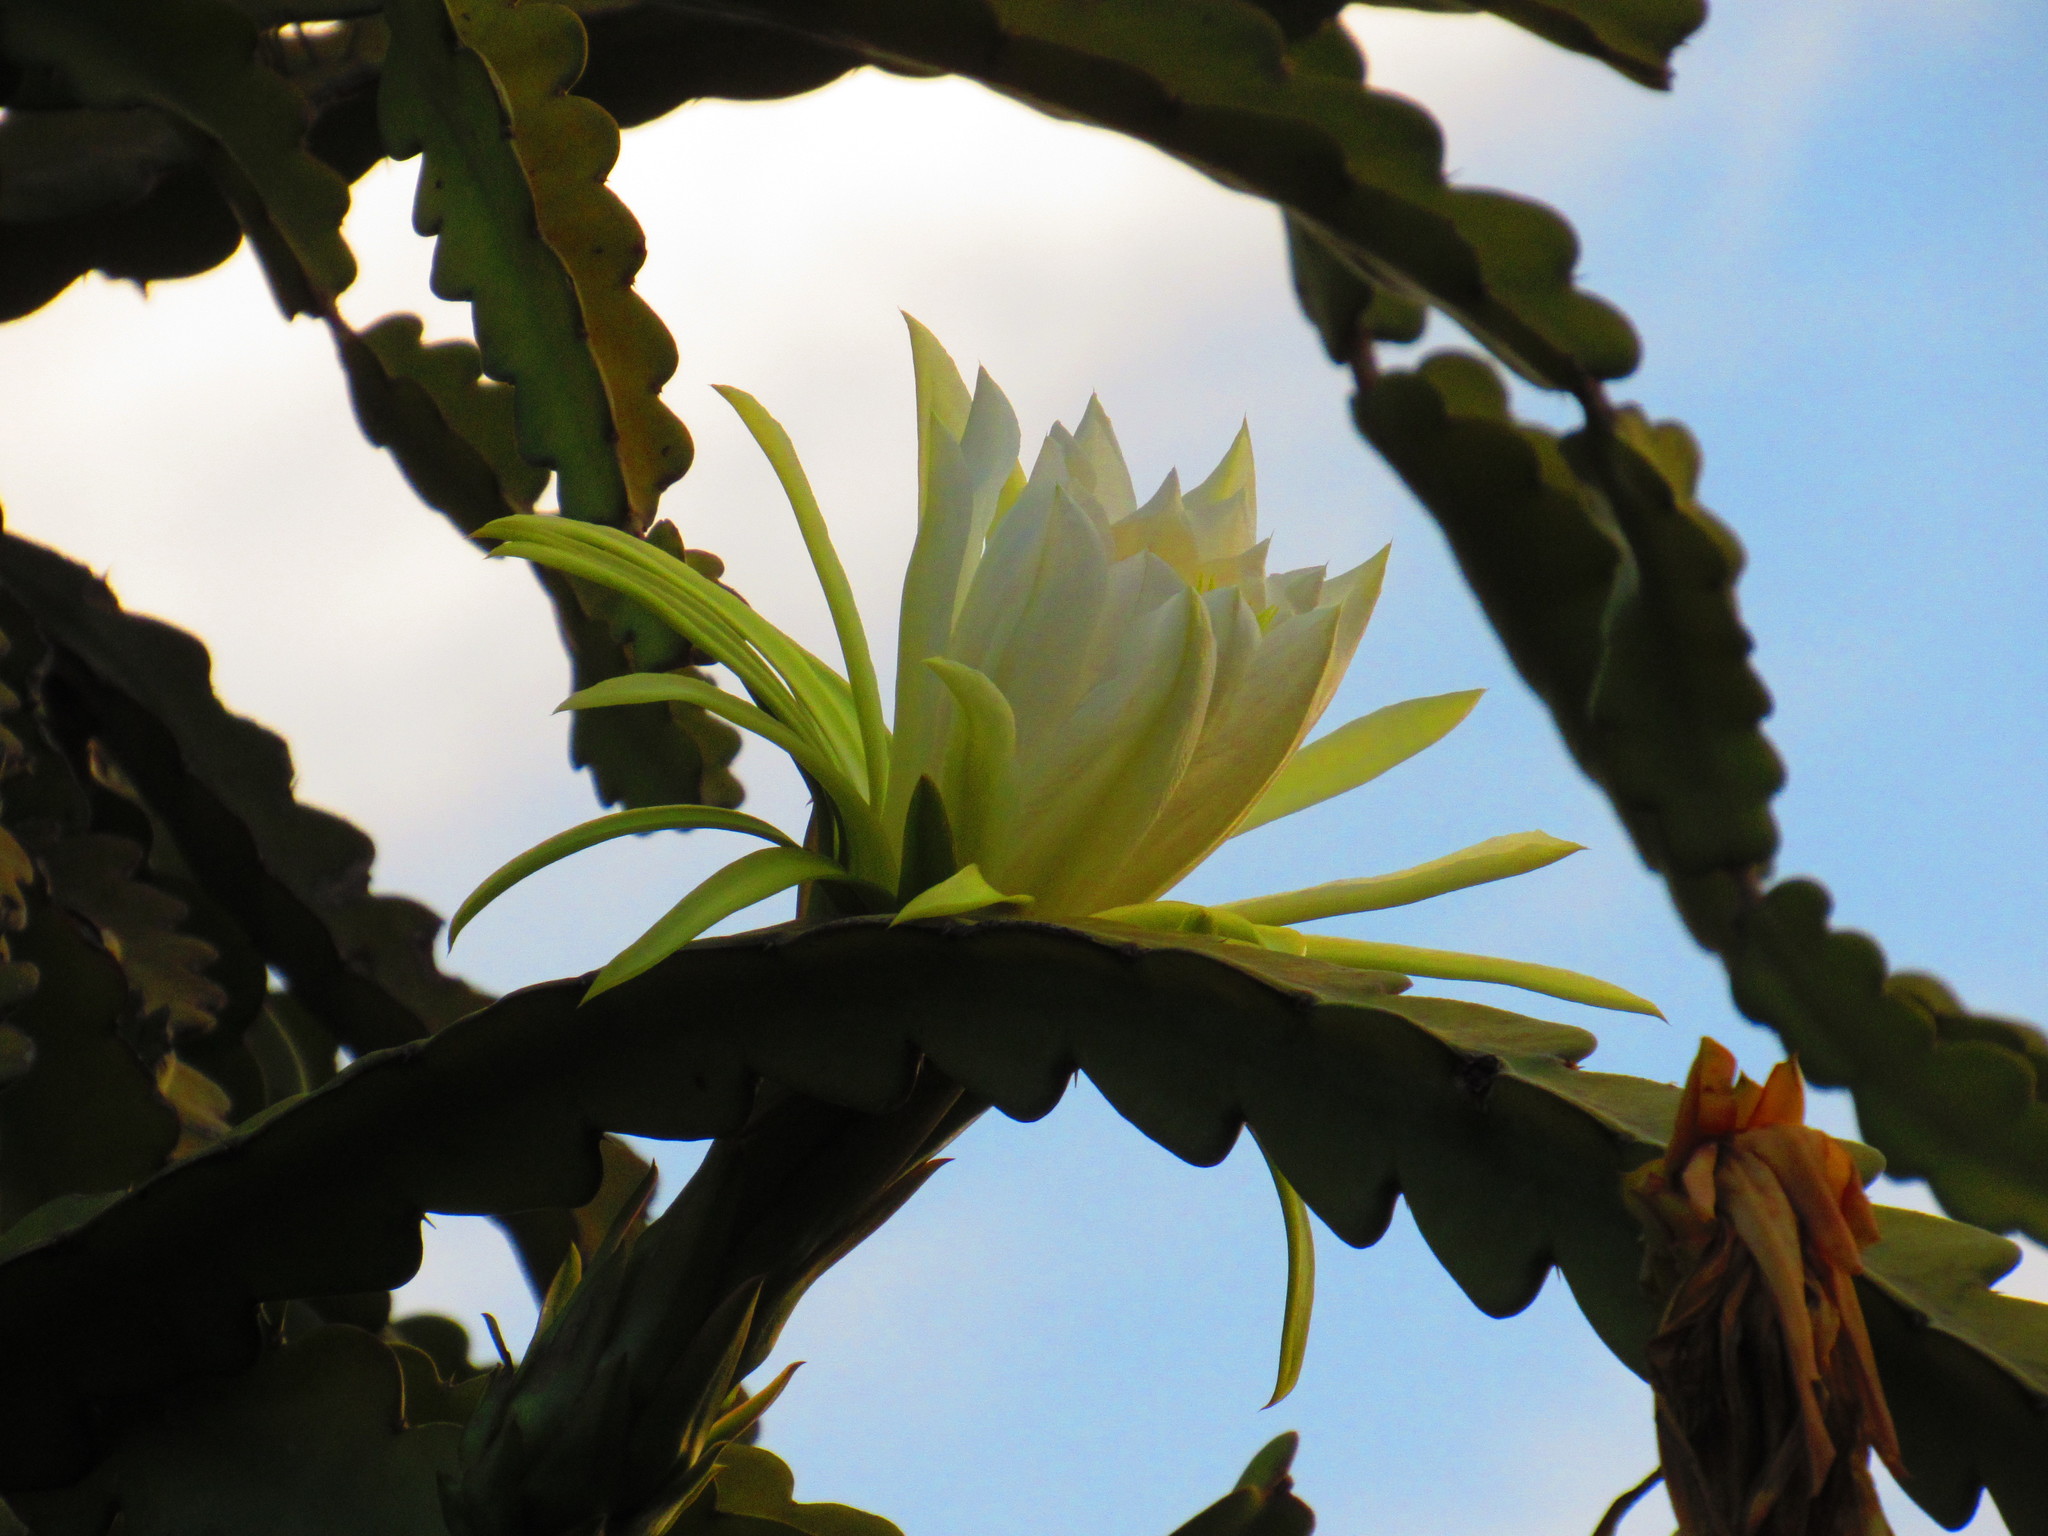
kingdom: Plantae
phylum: Tracheophyta
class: Magnoliopsida
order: Caryophyllales
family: Cactaceae
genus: Selenicereus
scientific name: Selenicereus undatus
